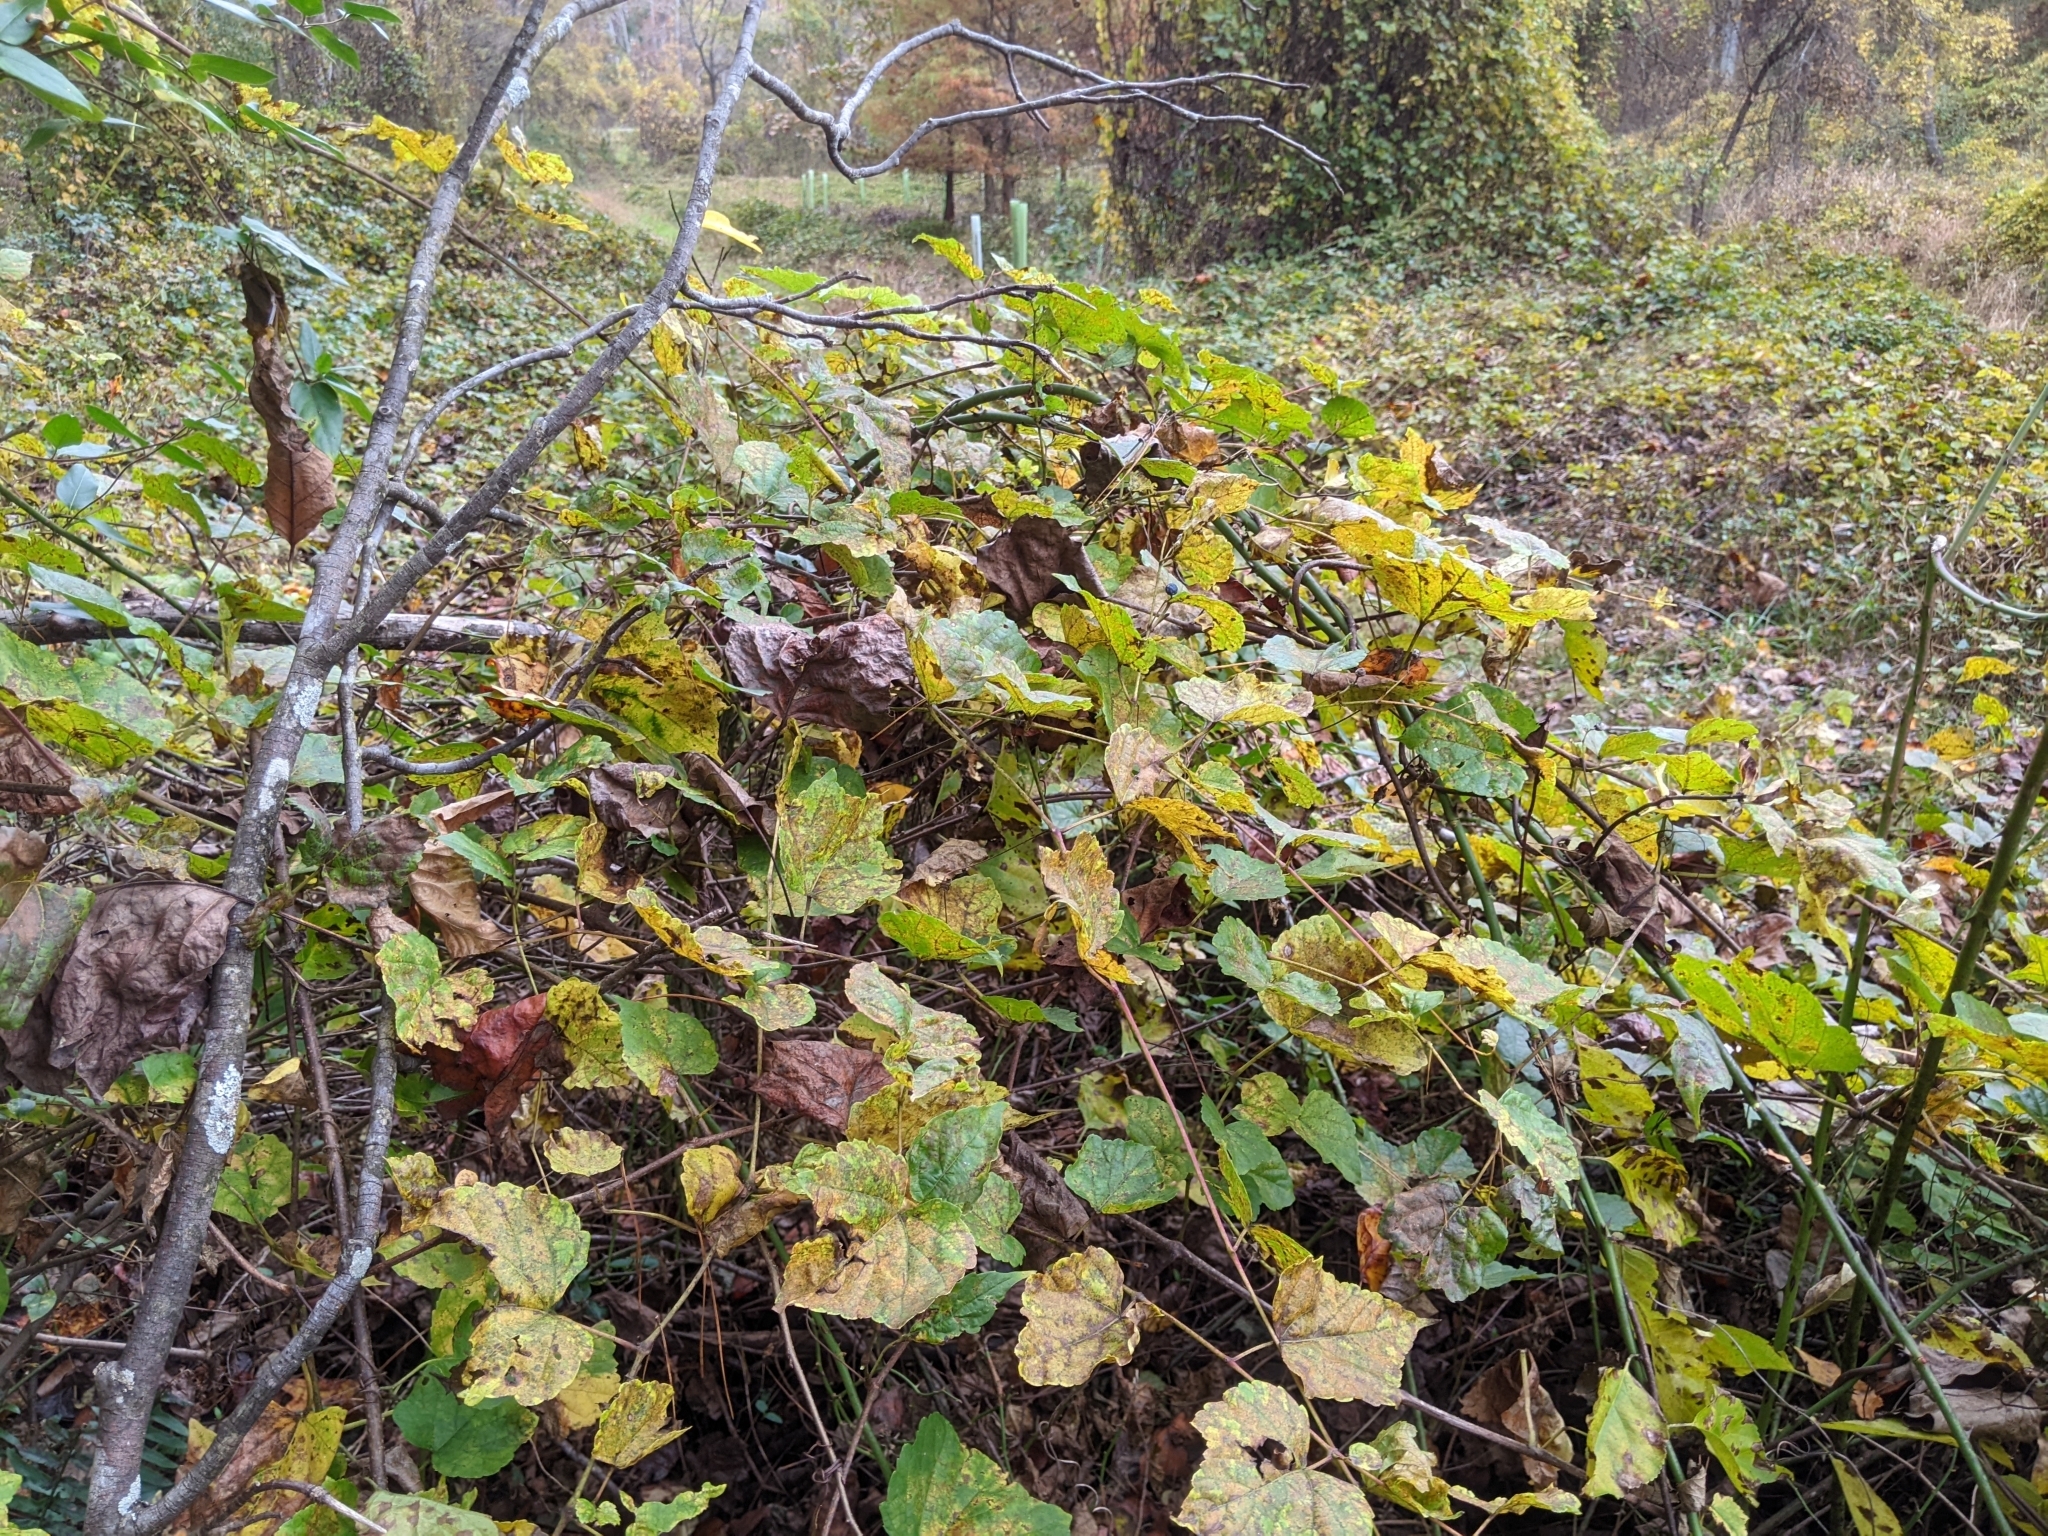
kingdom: Plantae
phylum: Tracheophyta
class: Magnoliopsida
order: Vitales
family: Vitaceae
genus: Ampelopsis
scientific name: Ampelopsis glandulosa
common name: Amur peppervine
